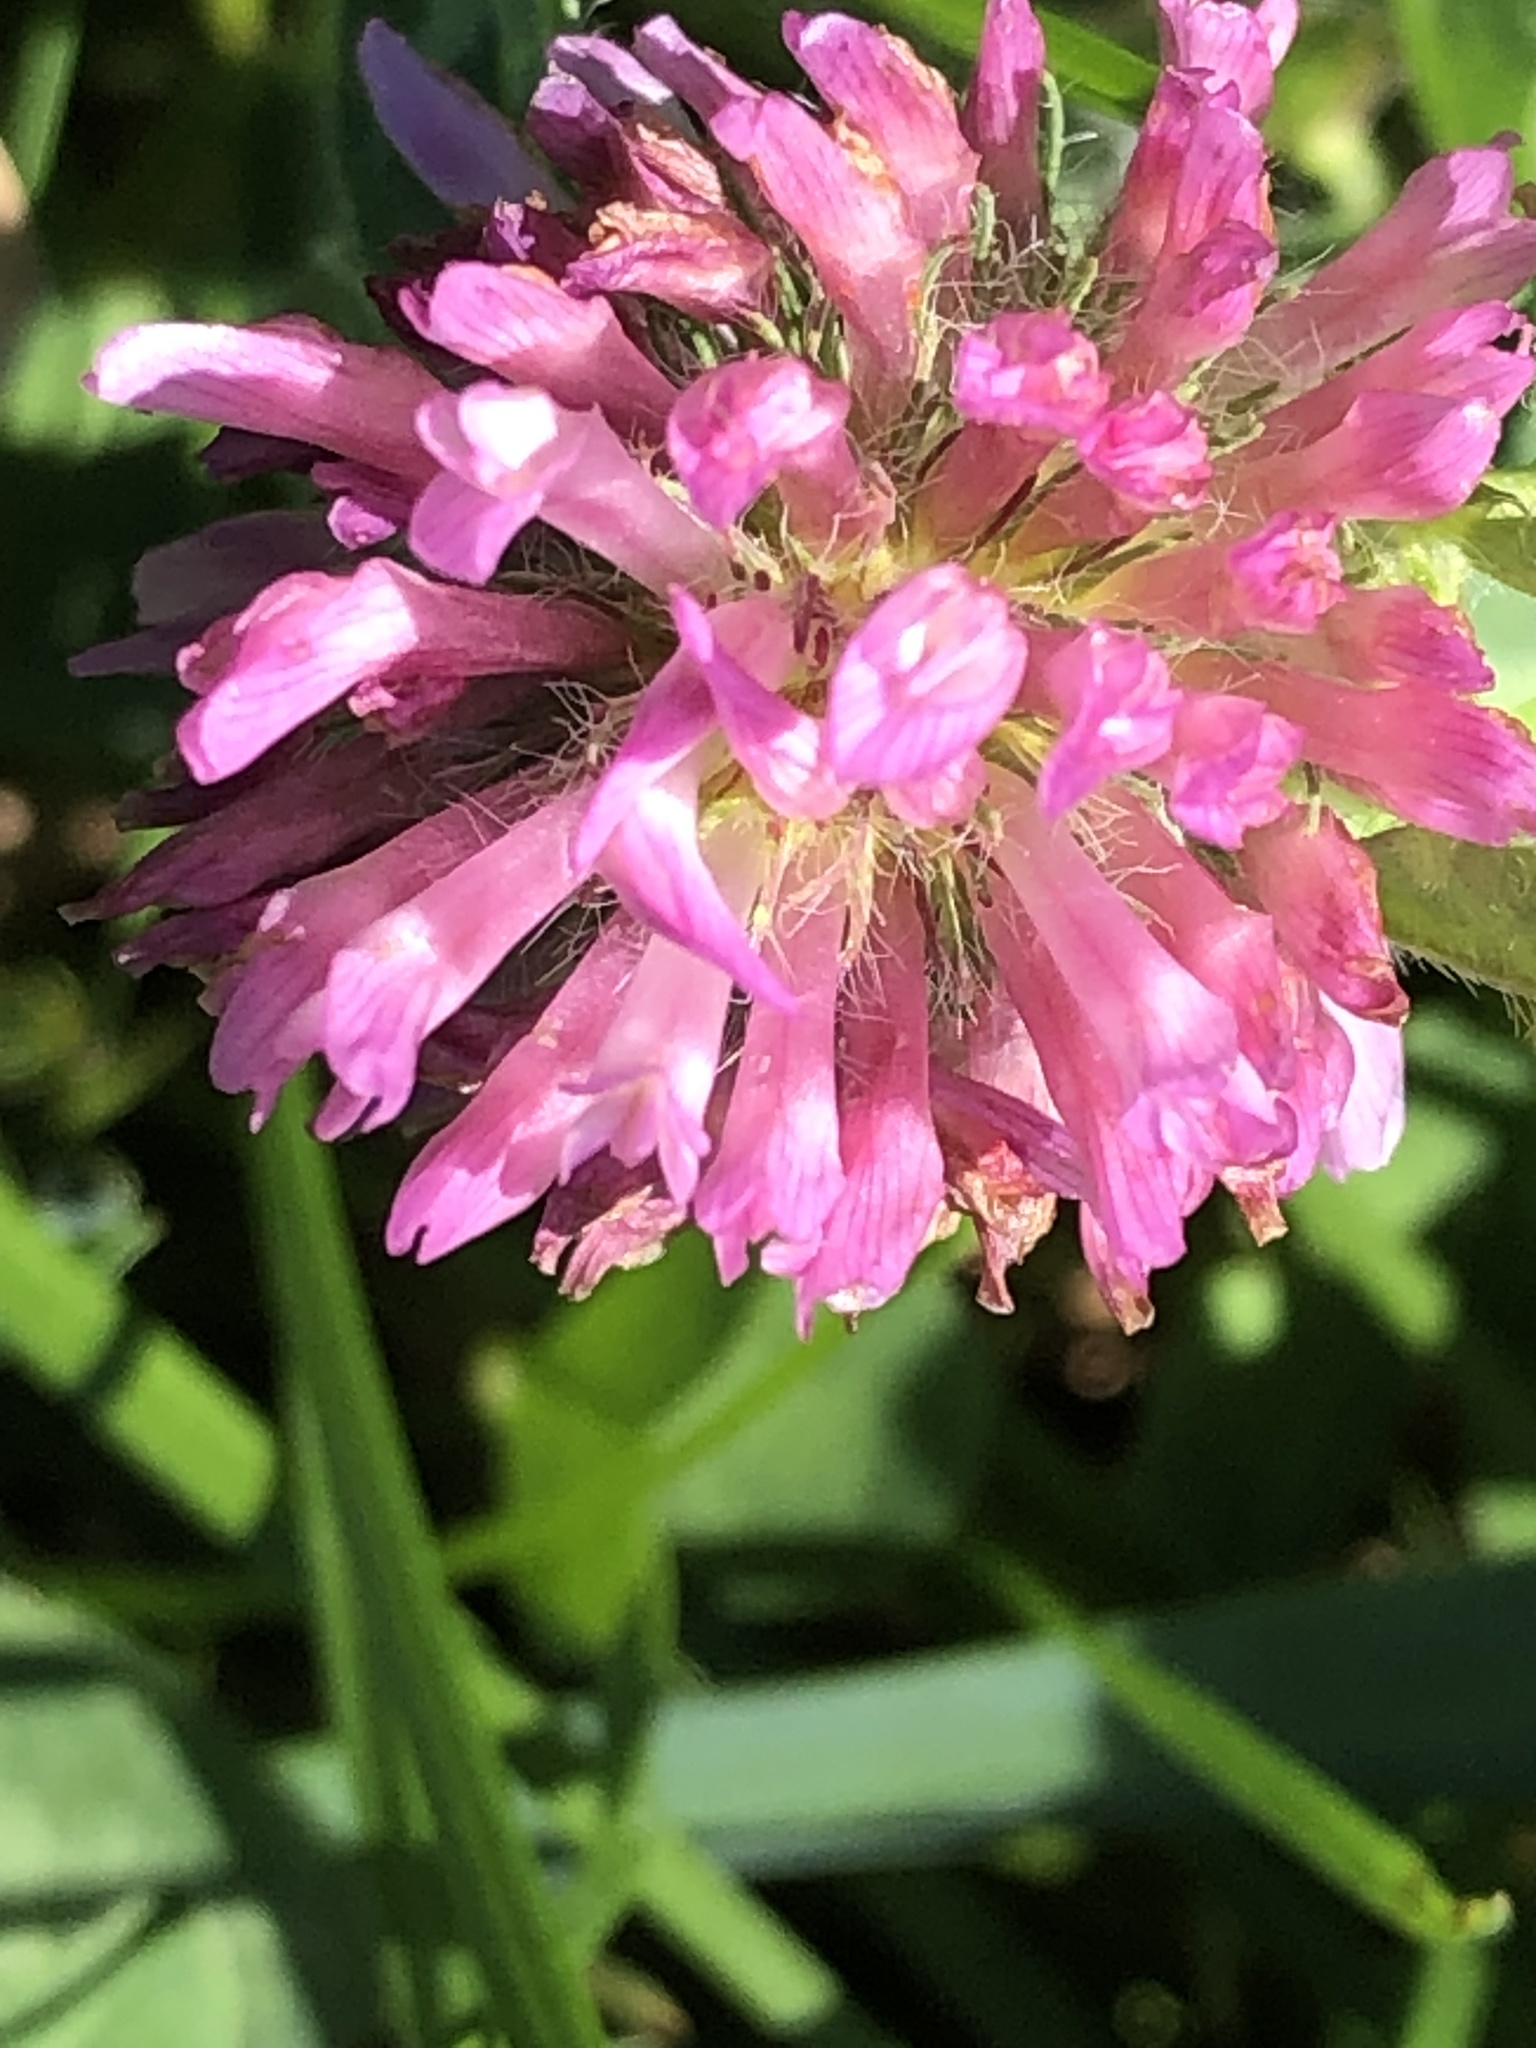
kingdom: Plantae
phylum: Tracheophyta
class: Magnoliopsida
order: Fabales
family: Fabaceae
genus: Trifolium
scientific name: Trifolium pratense
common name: Red clover
